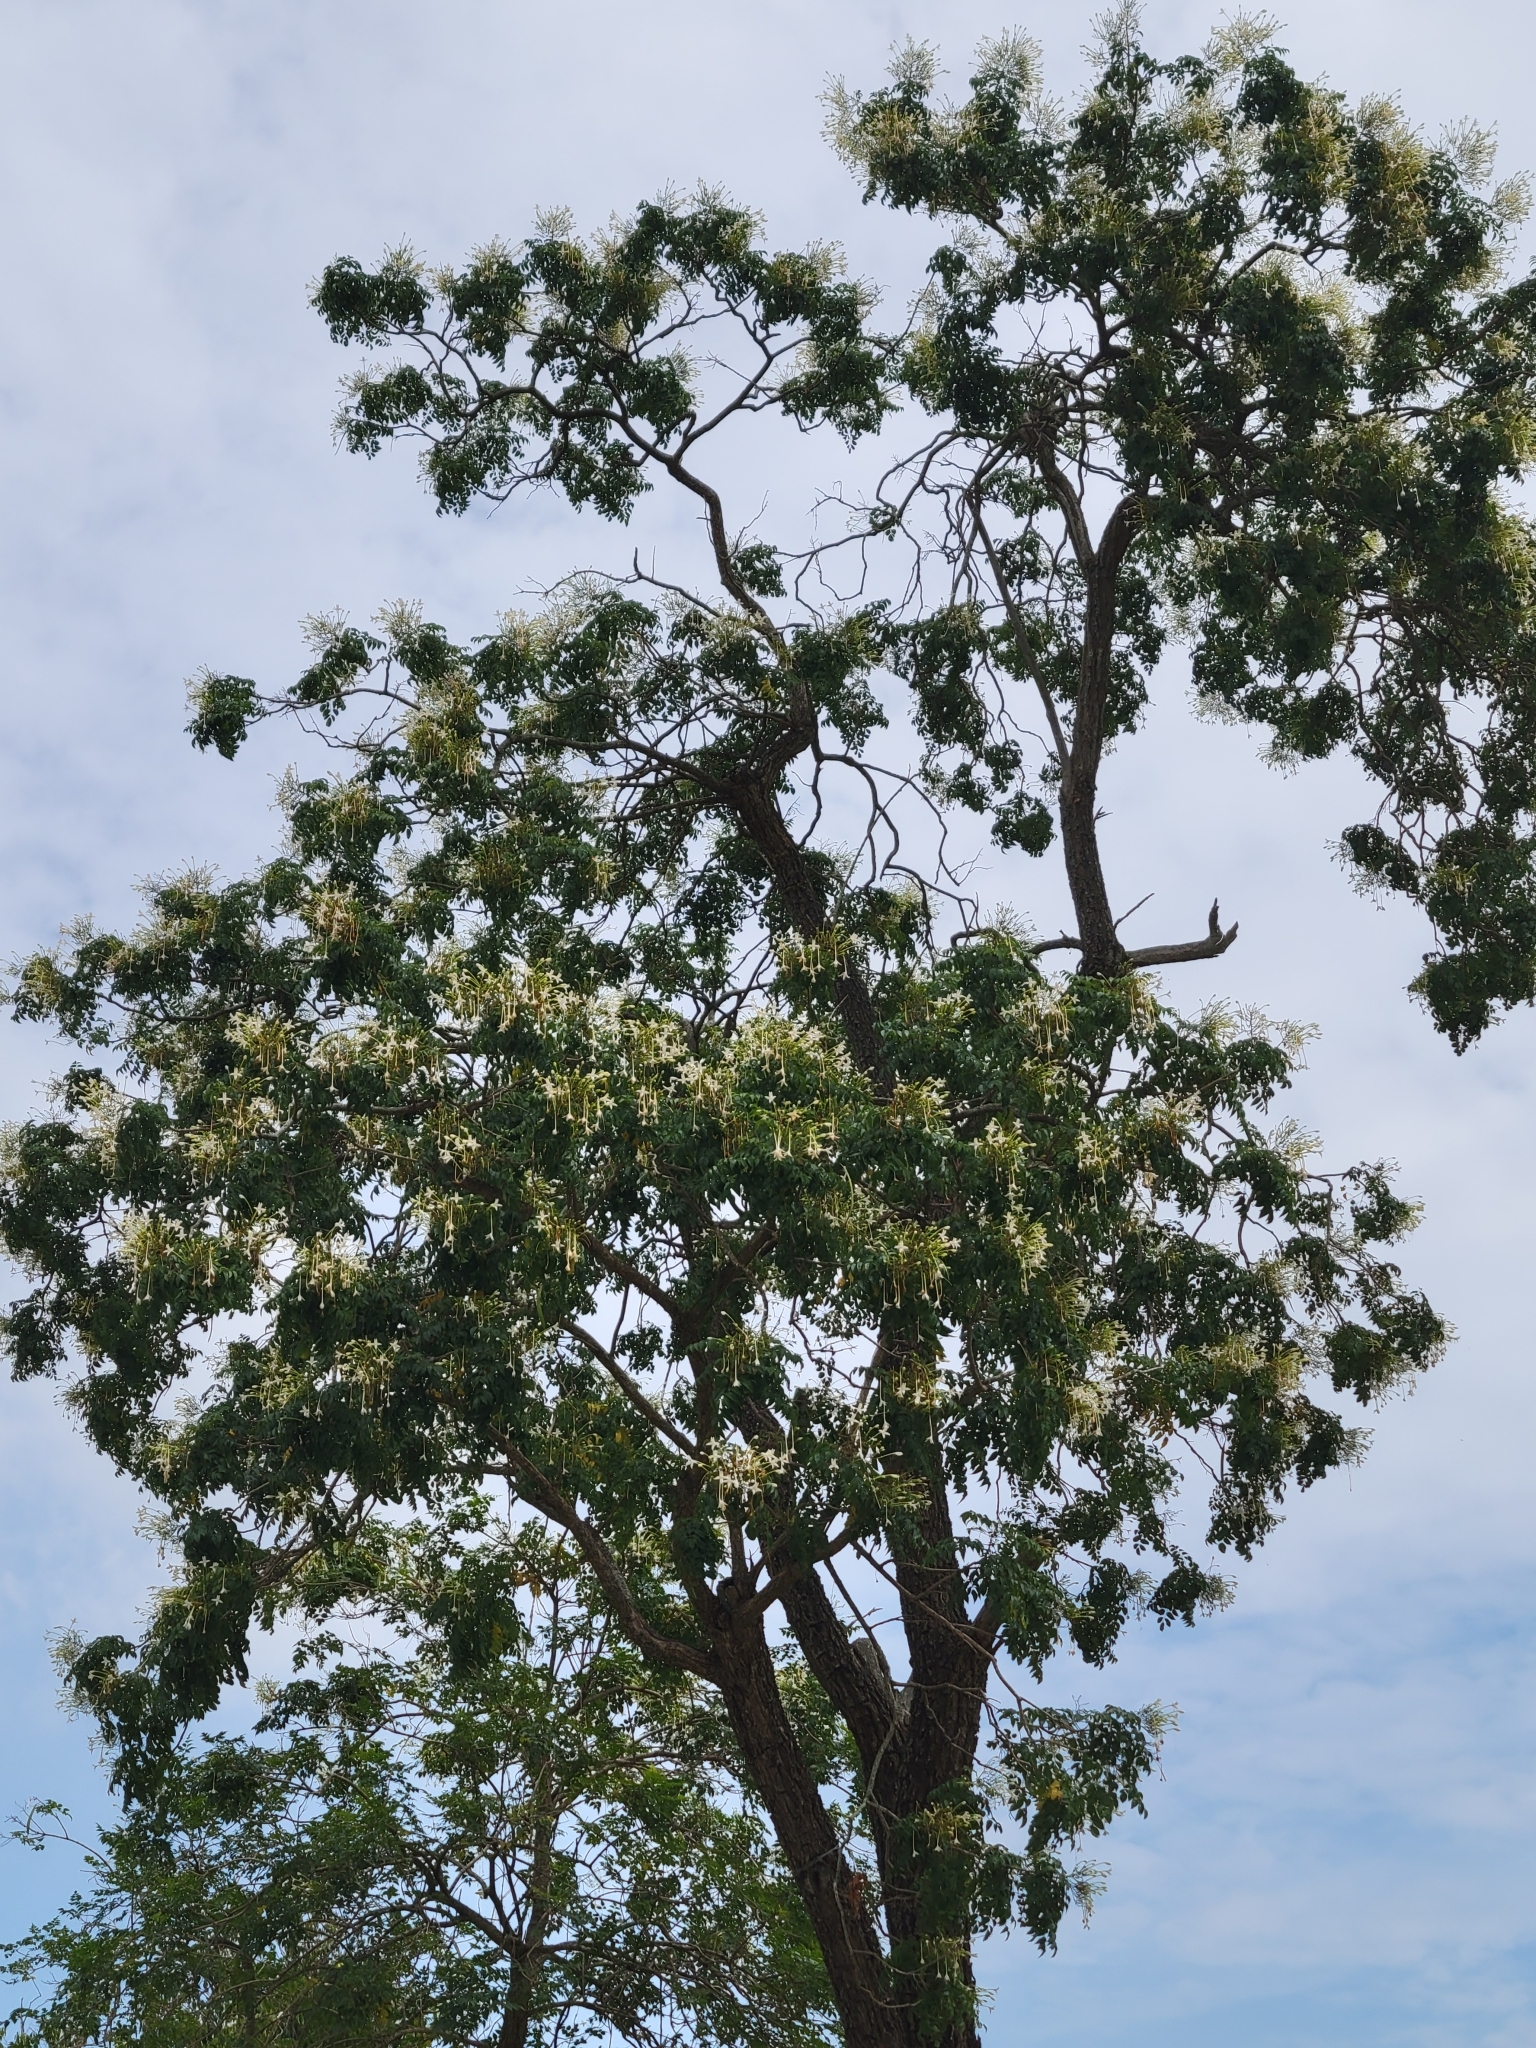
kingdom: Plantae
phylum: Tracheophyta
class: Magnoliopsida
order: Lamiales
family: Bignoniaceae
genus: Millingtonia
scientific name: Millingtonia hortensis
